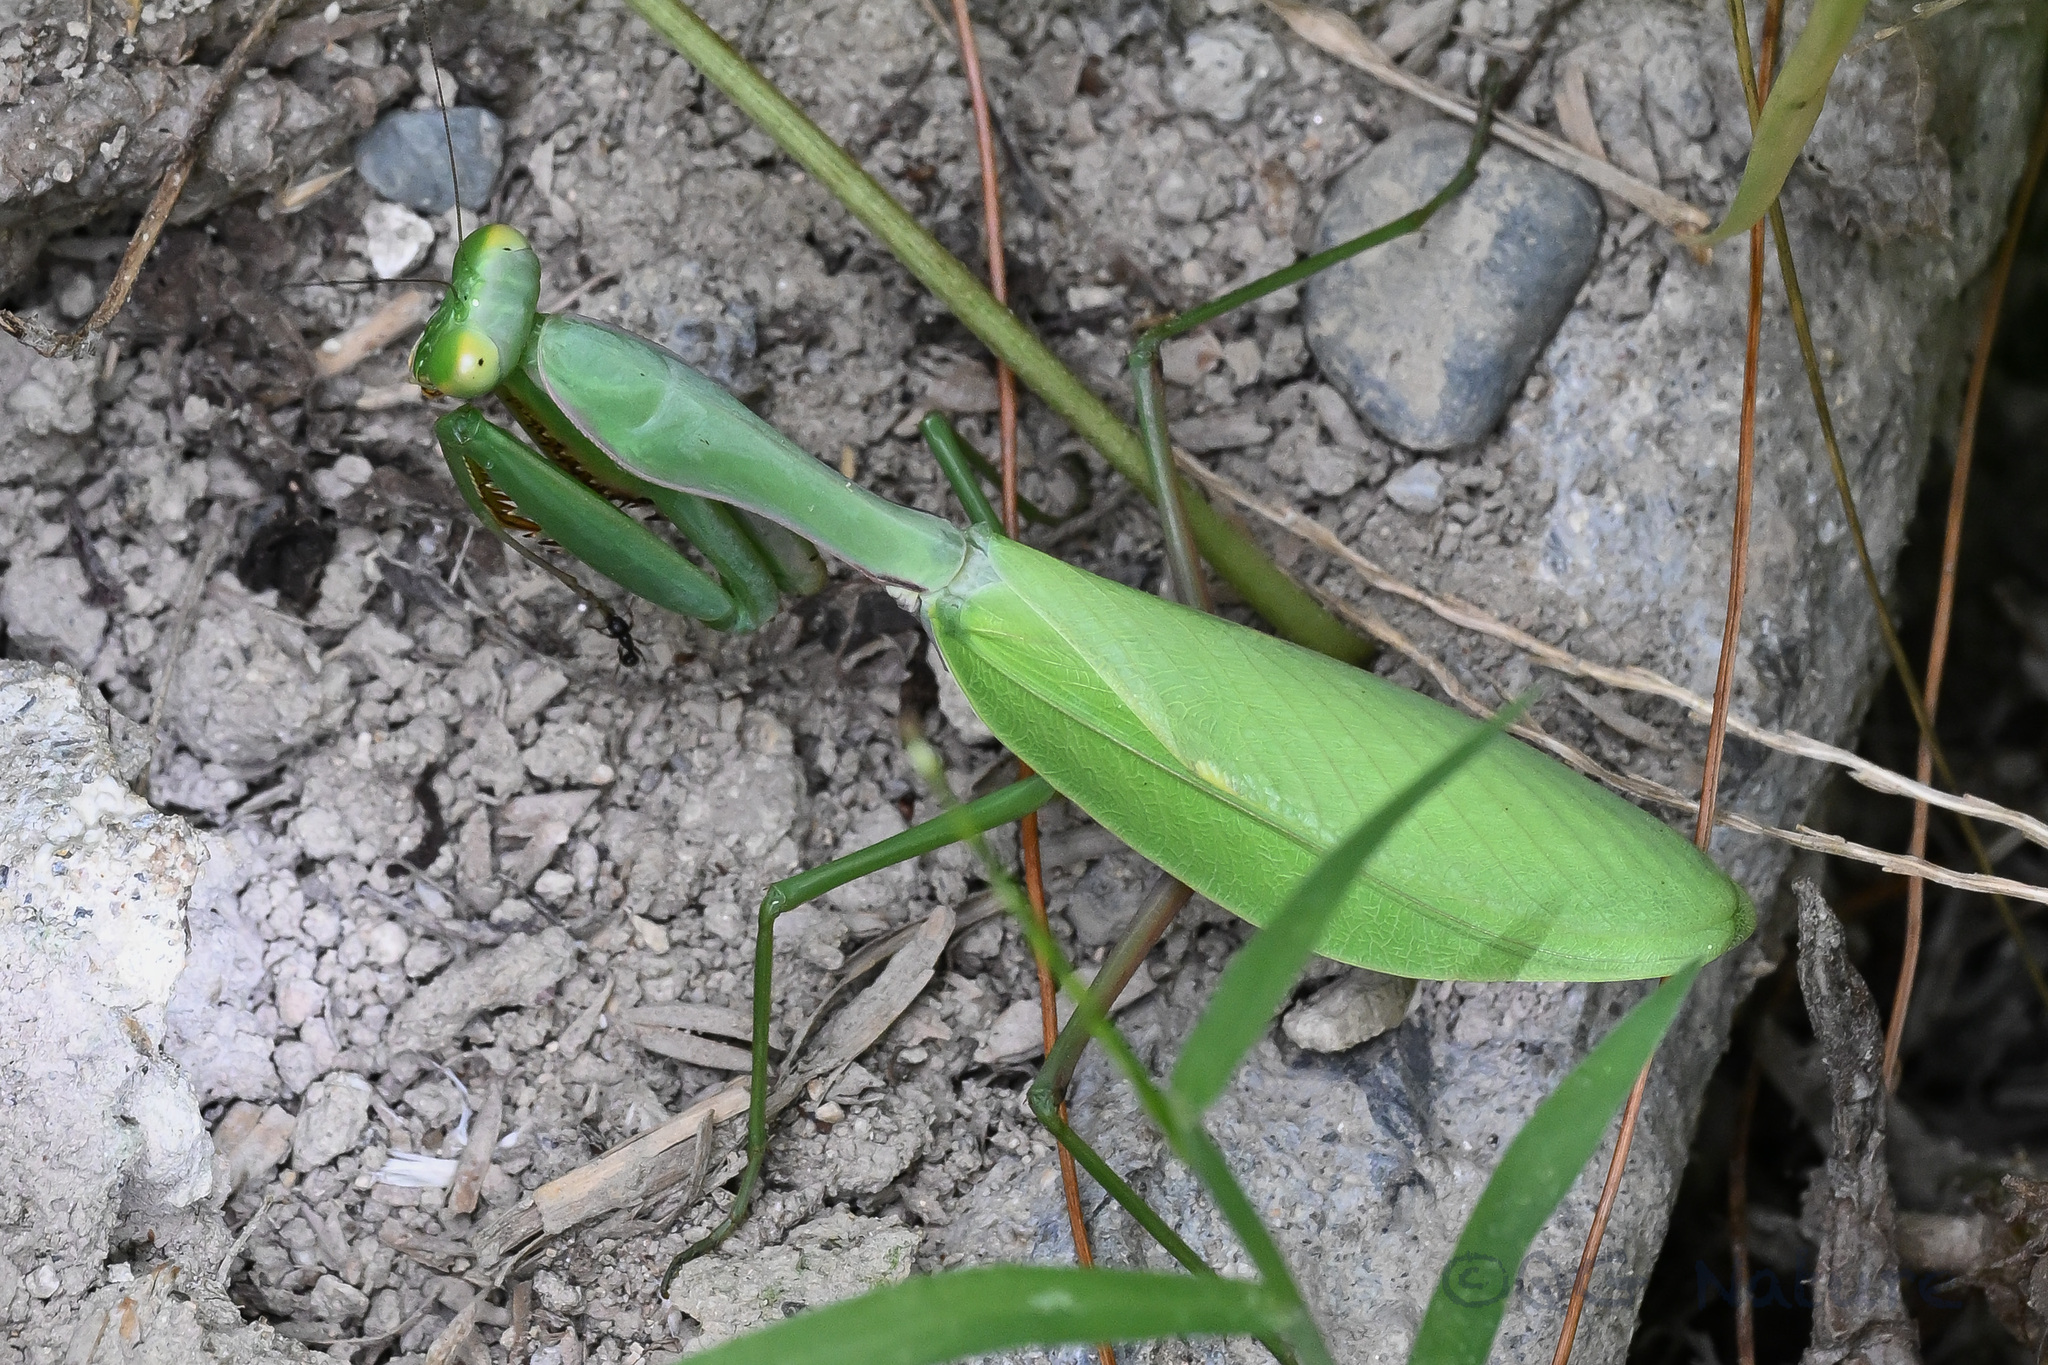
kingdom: Animalia
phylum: Arthropoda
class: Insecta
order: Mantodea
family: Mantidae
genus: Hierodula
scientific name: Hierodula chinensis
